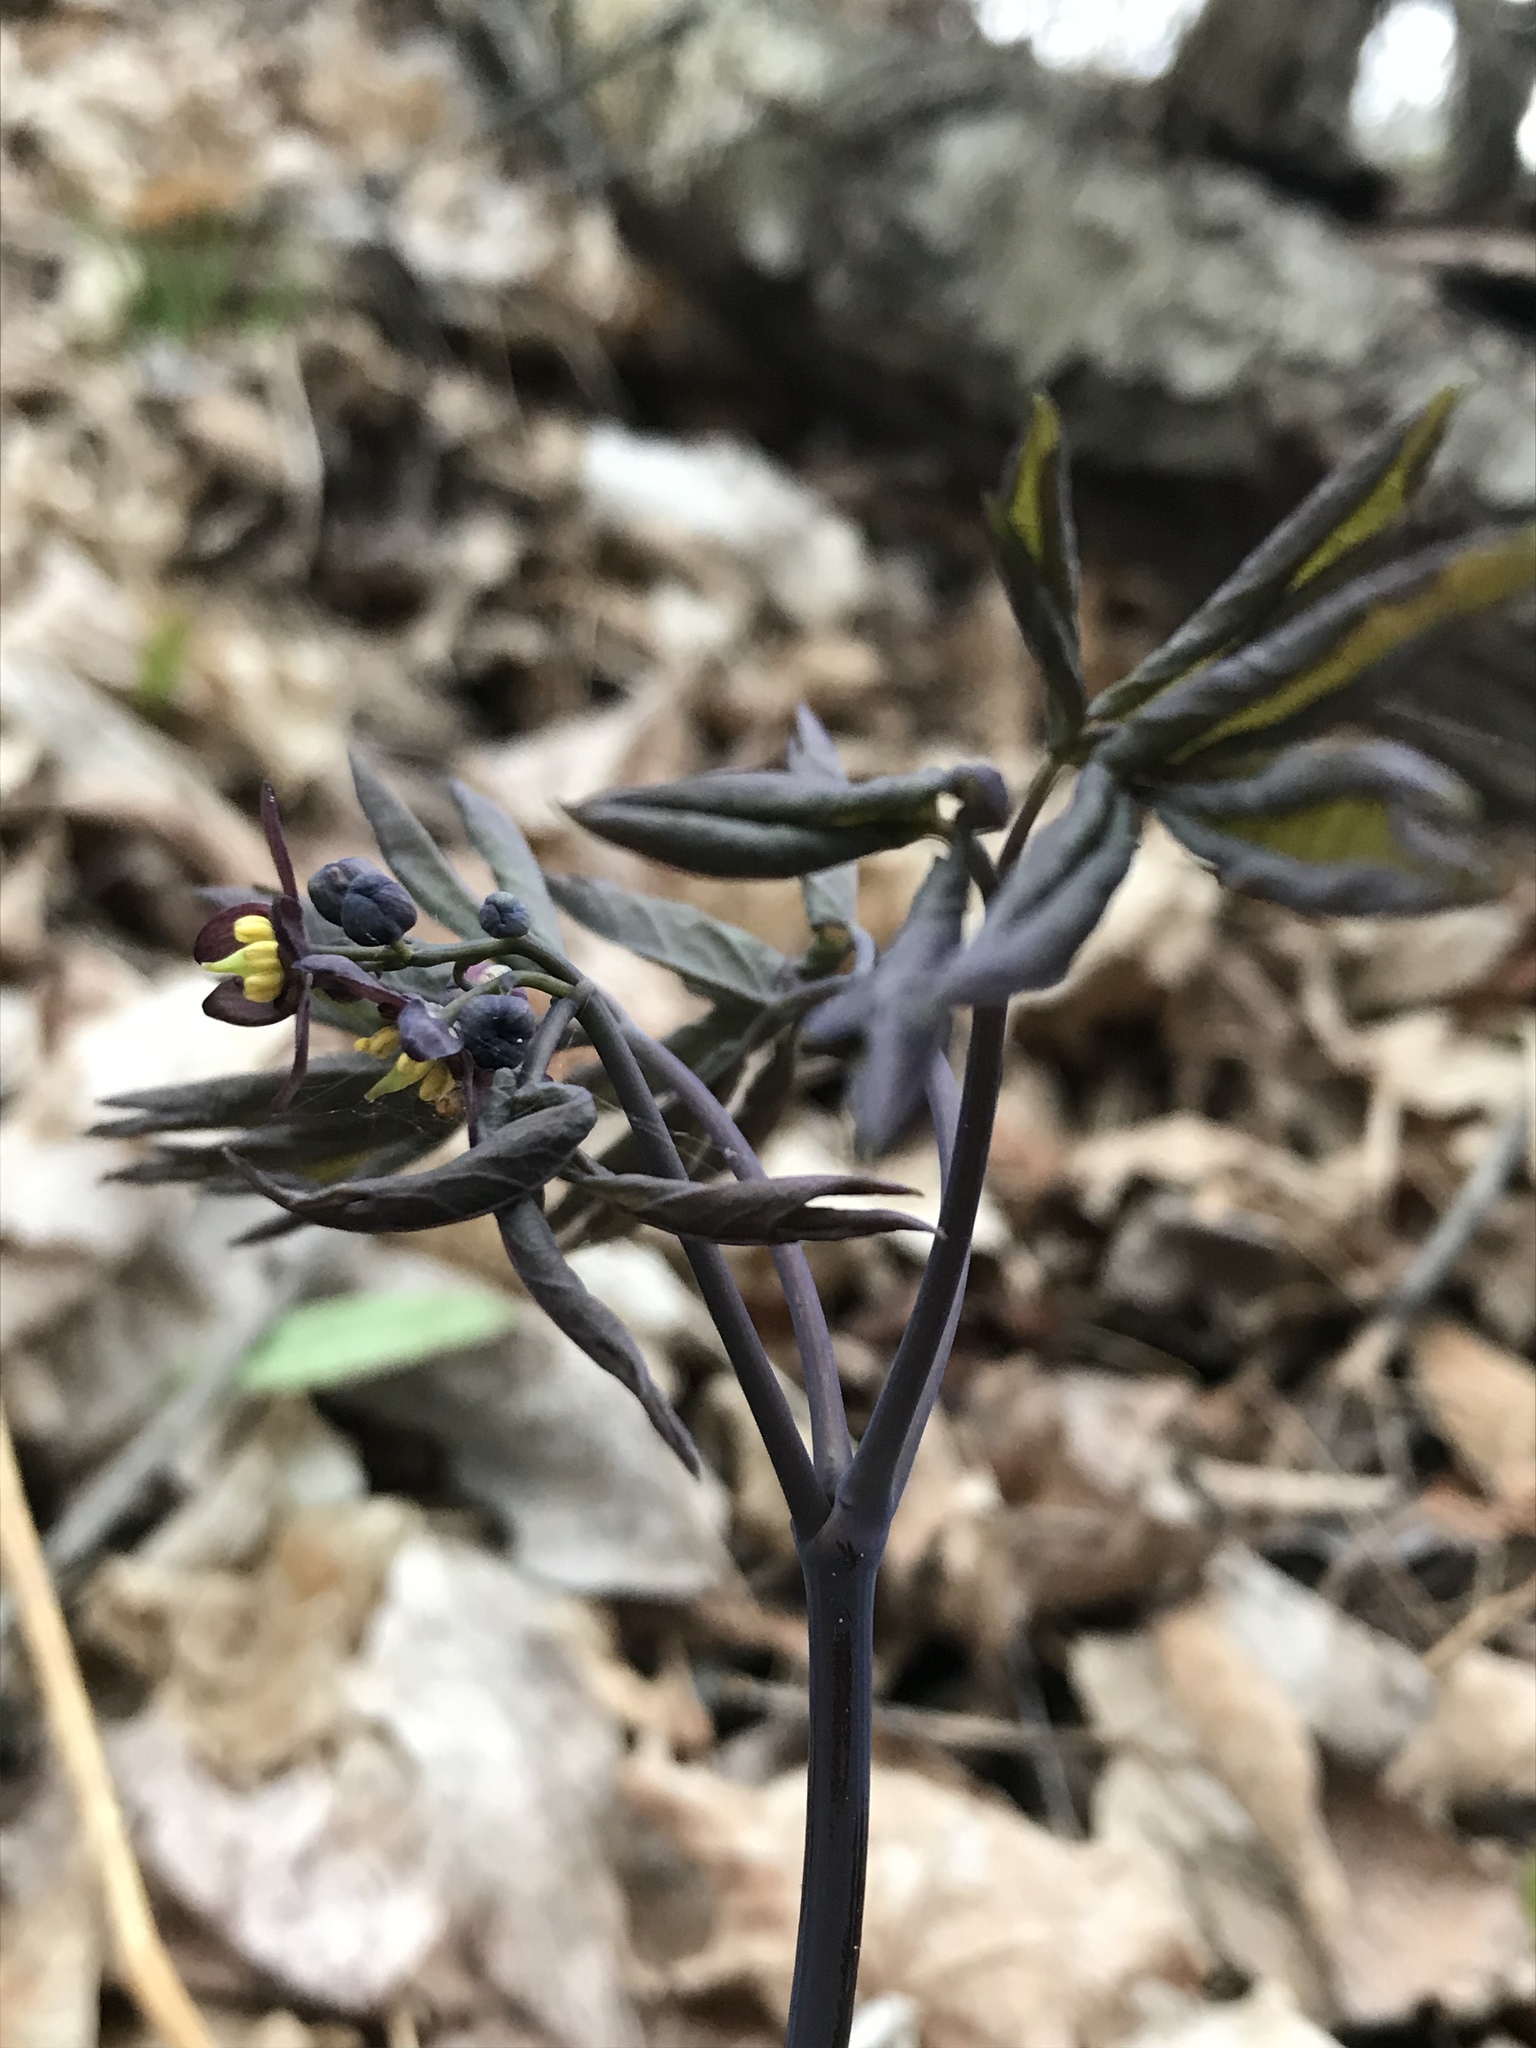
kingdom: Plantae
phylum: Tracheophyta
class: Magnoliopsida
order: Ranunculales
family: Berberidaceae
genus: Caulophyllum
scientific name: Caulophyllum giganteum
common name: Blue cohosh
